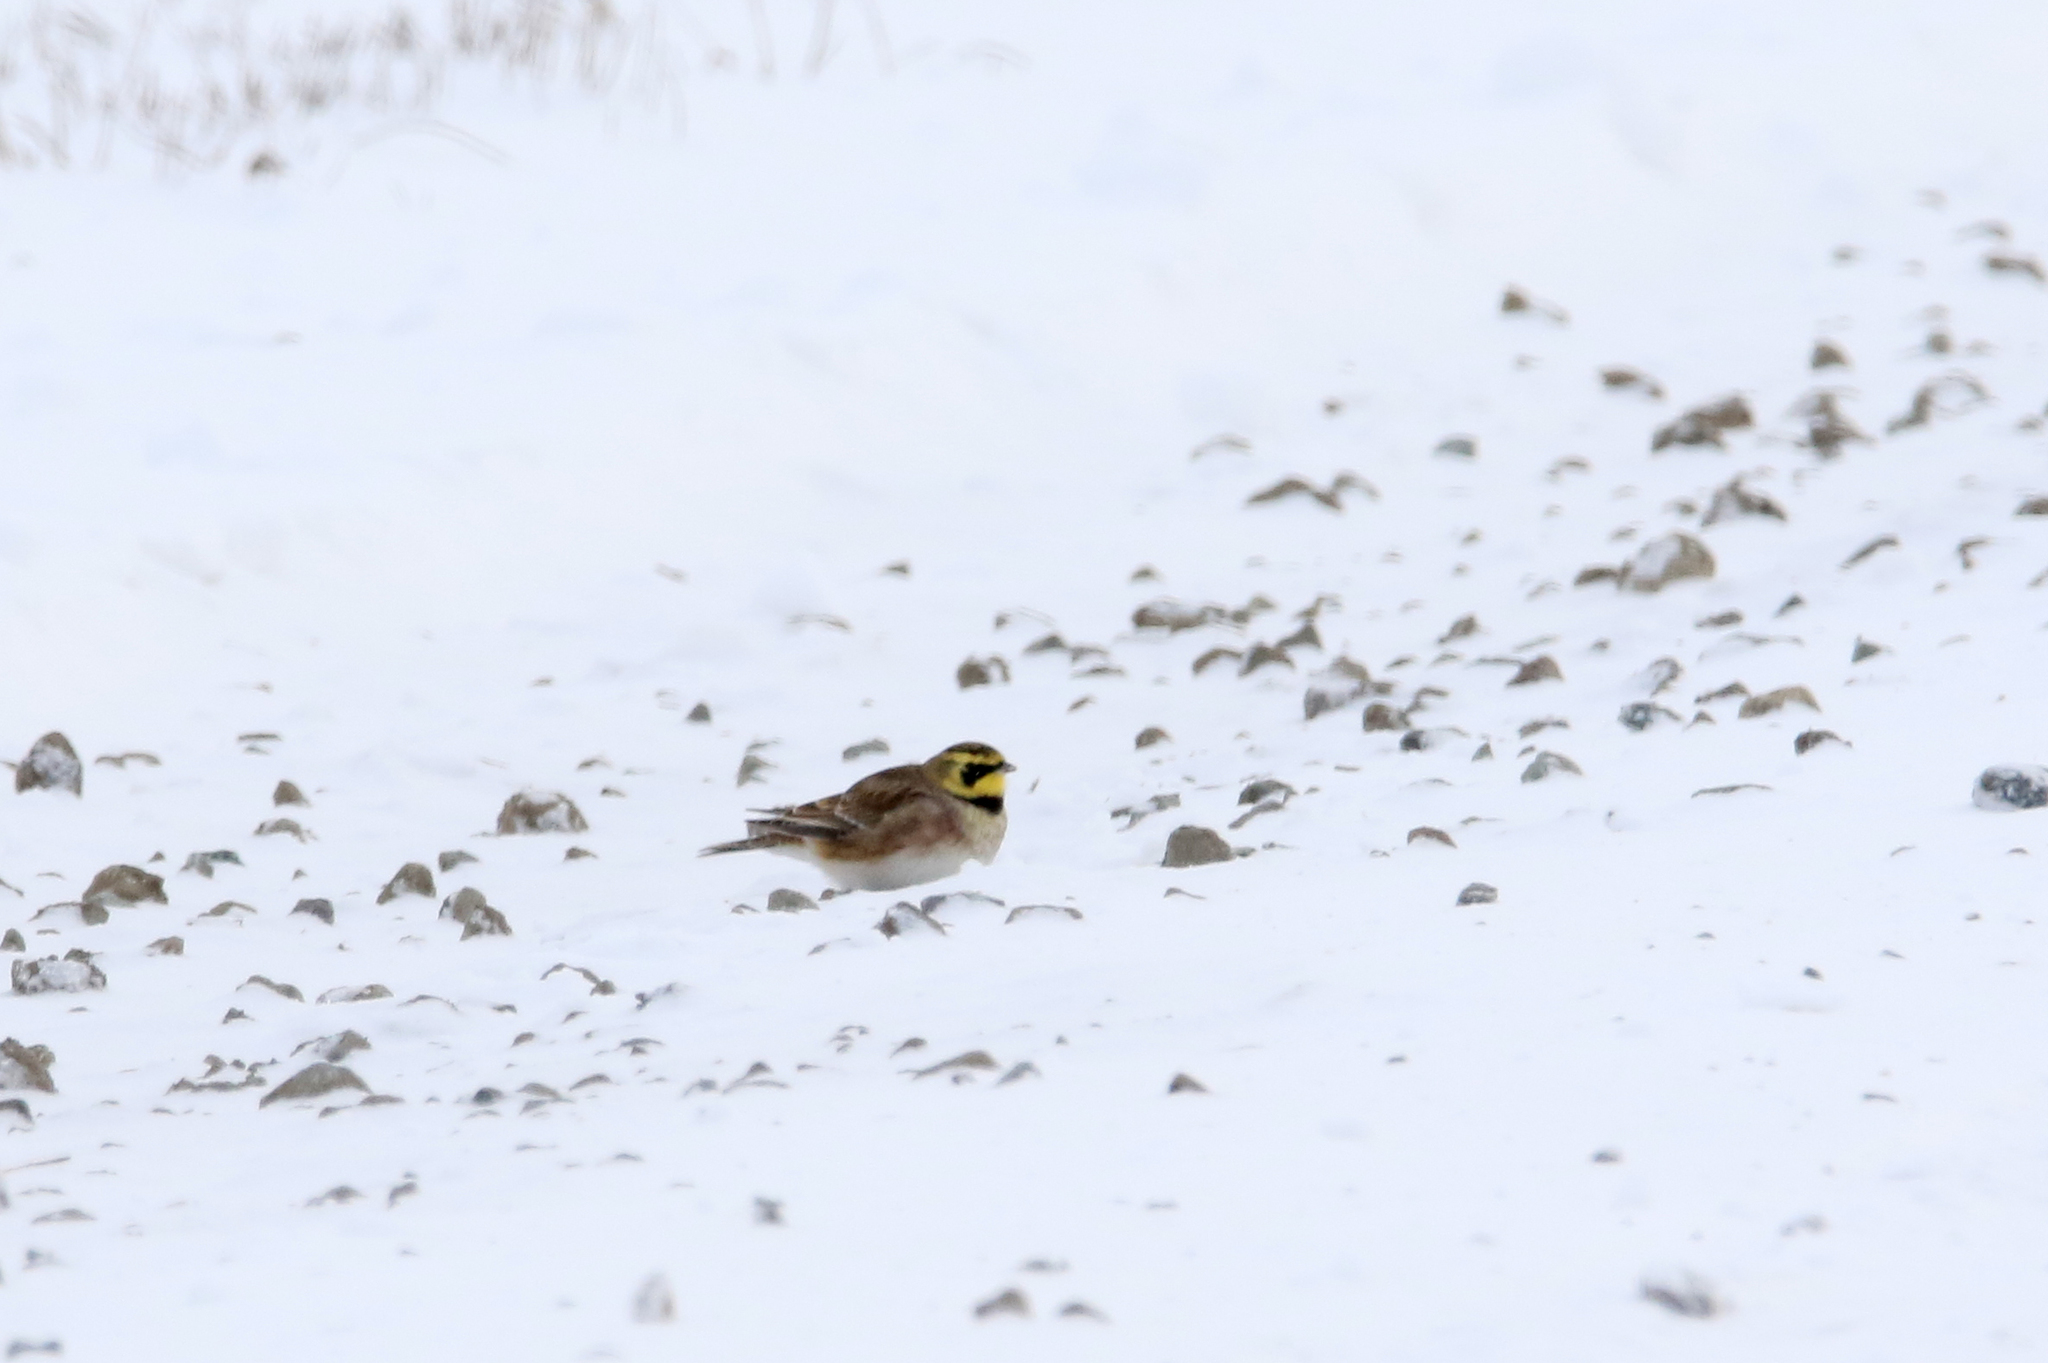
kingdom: Animalia
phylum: Chordata
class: Aves
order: Passeriformes
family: Alaudidae
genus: Eremophila
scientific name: Eremophila alpestris
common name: Horned lark
